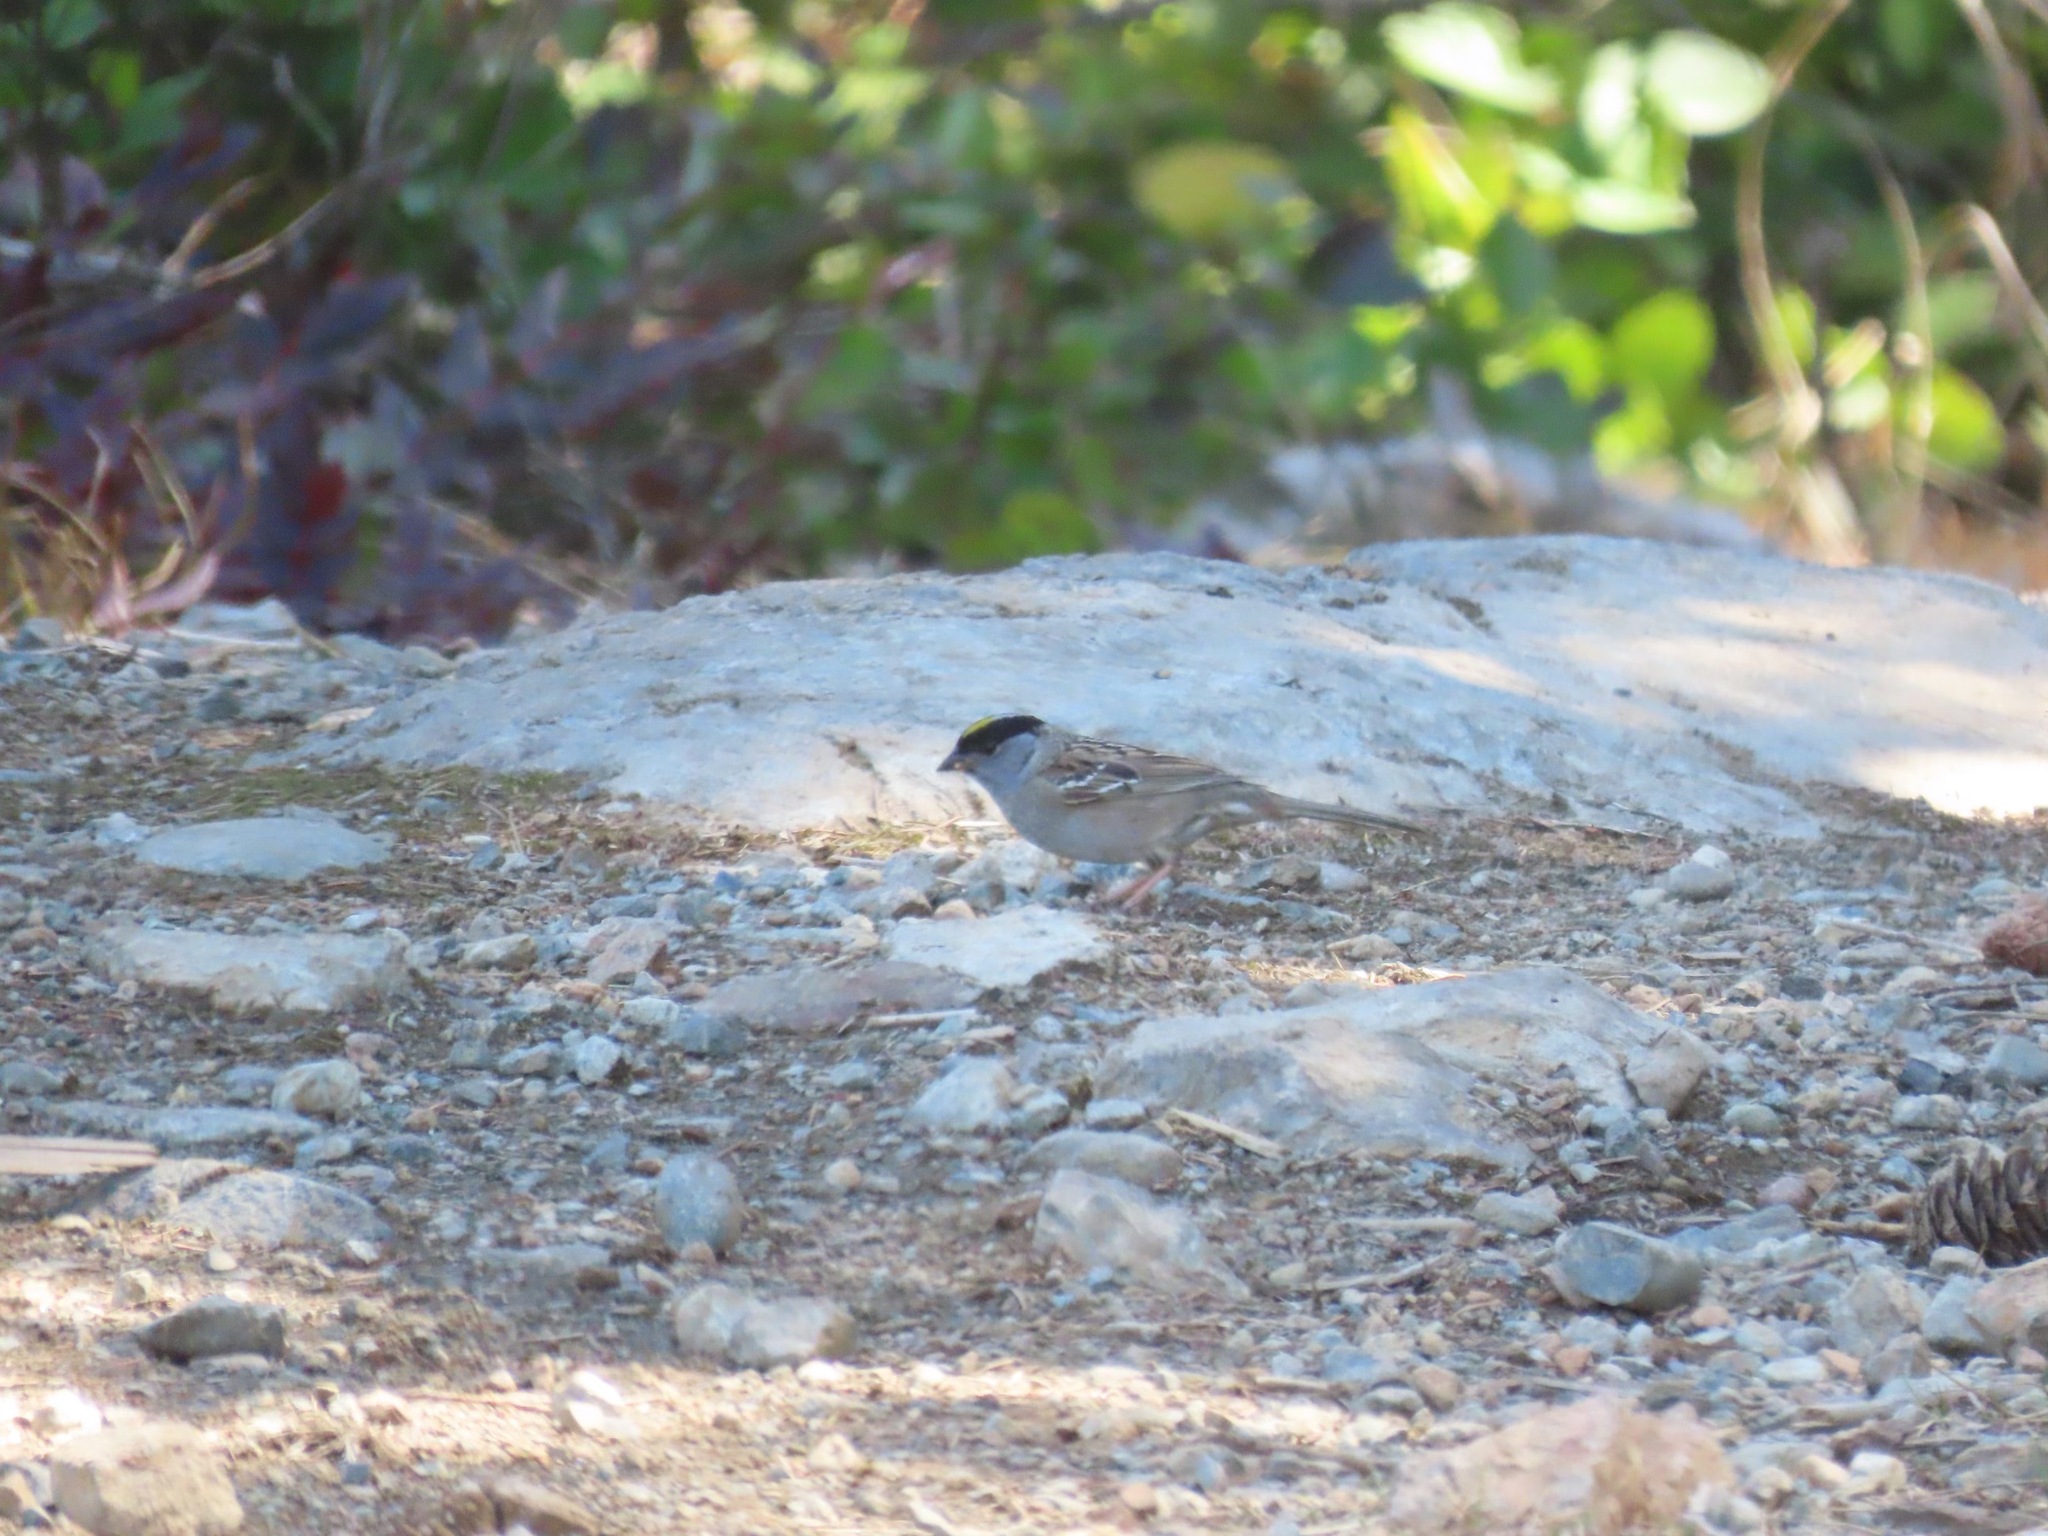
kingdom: Animalia
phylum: Chordata
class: Aves
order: Passeriformes
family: Passerellidae
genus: Zonotrichia
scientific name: Zonotrichia atricapilla
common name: Golden-crowned sparrow
